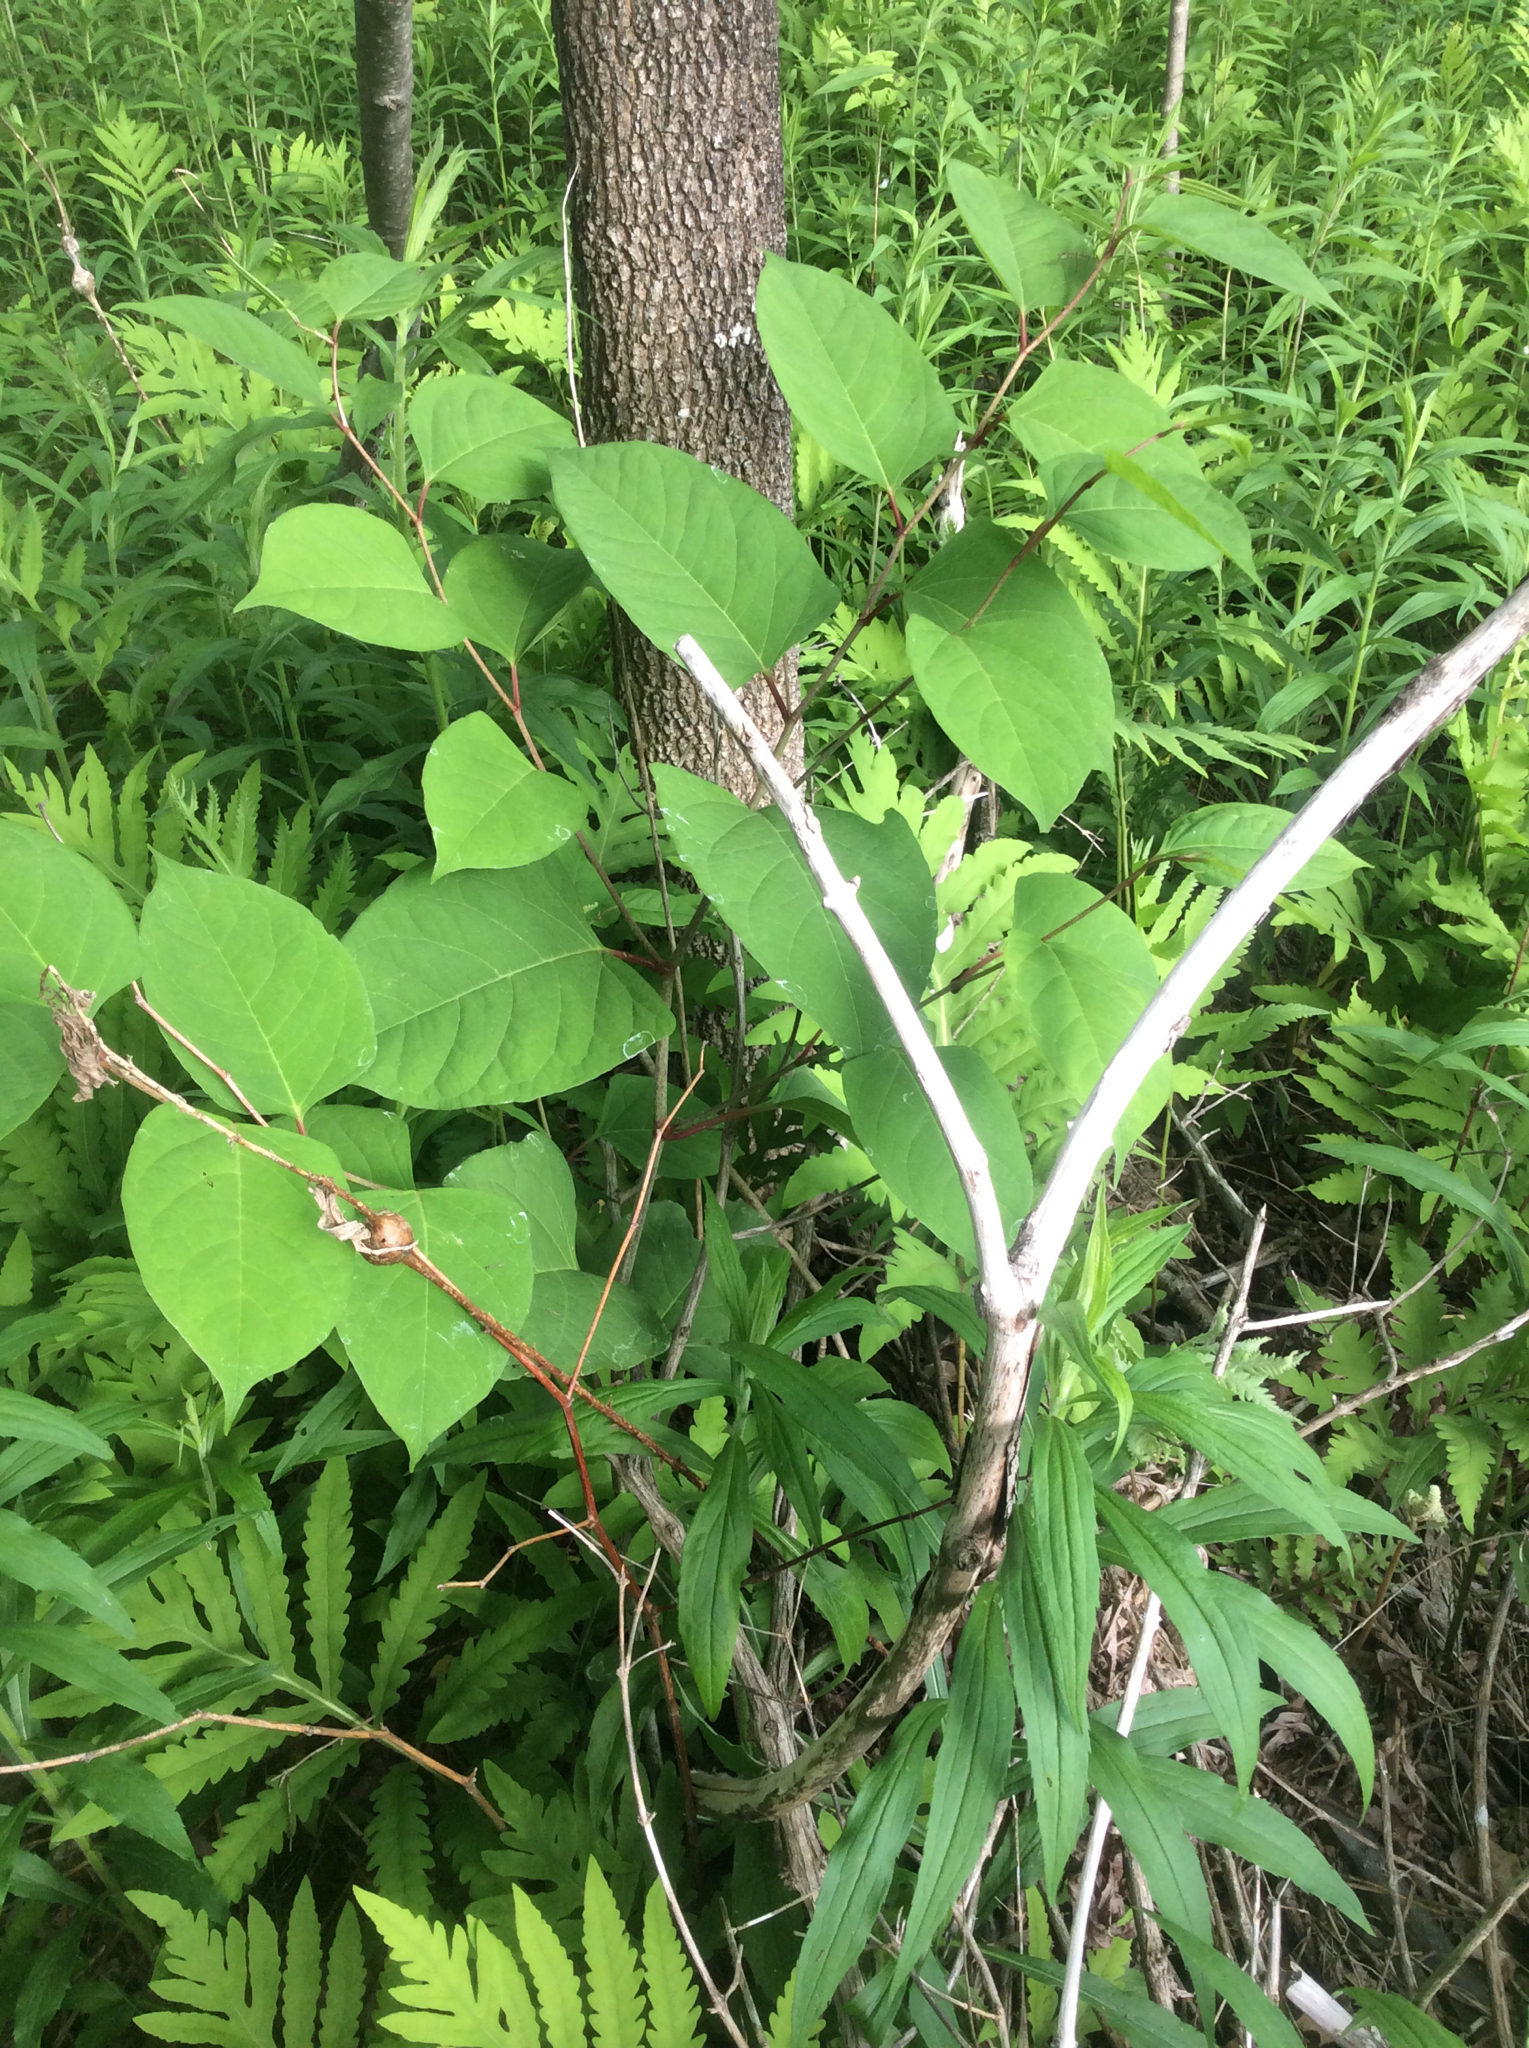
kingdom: Plantae
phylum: Tracheophyta
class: Magnoliopsida
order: Caryophyllales
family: Polygonaceae
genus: Reynoutria
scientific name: Reynoutria japonica
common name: Japanese knotweed
